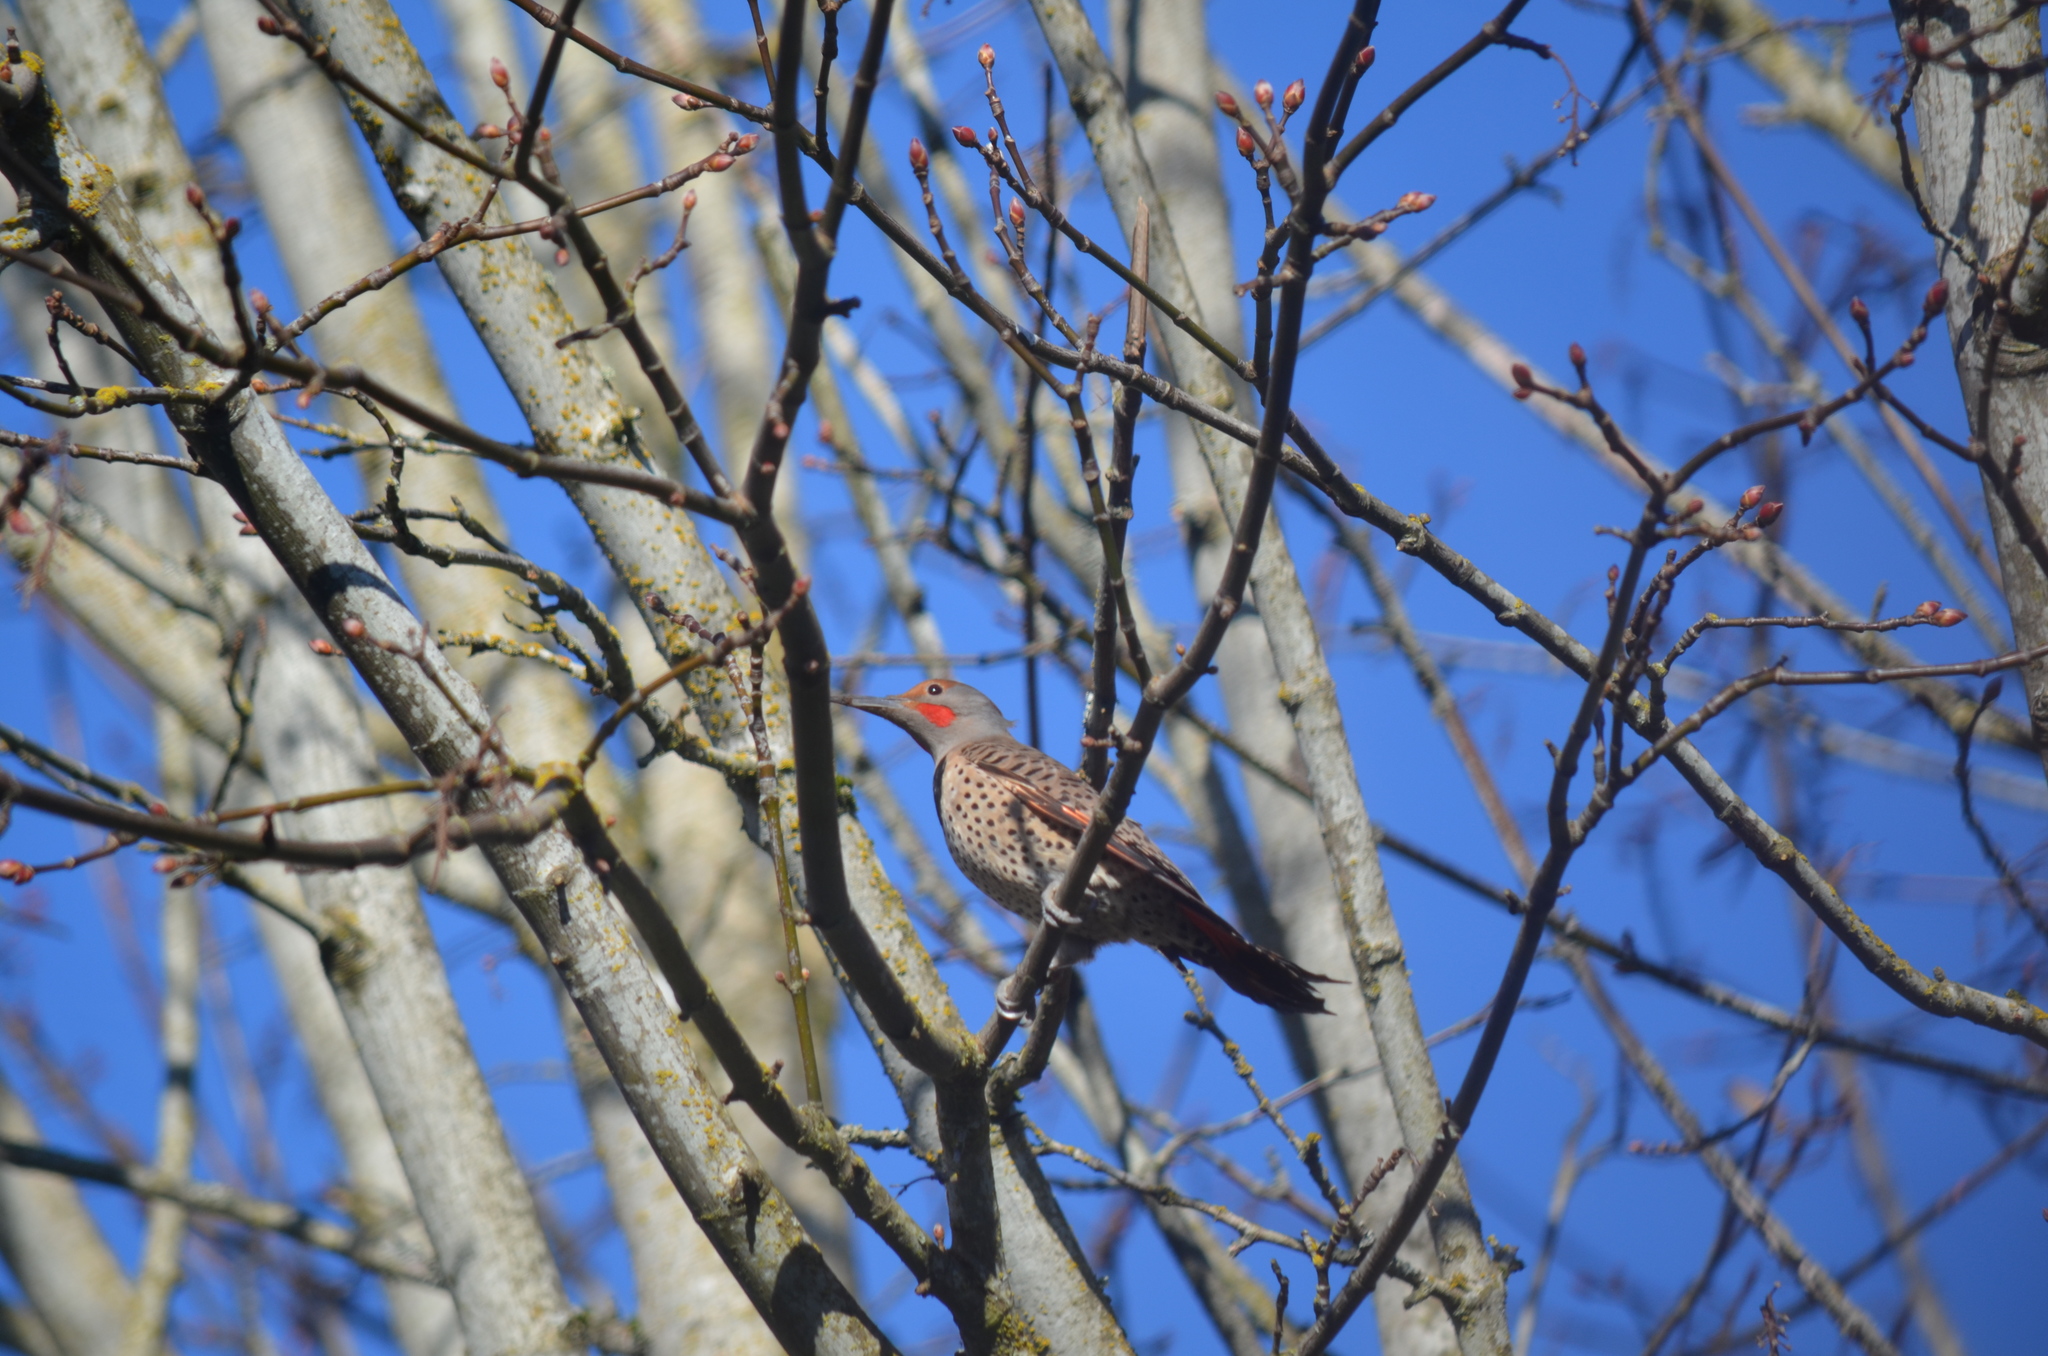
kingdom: Animalia
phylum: Chordata
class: Aves
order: Piciformes
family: Picidae
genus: Colaptes
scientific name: Colaptes auratus
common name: Northern flicker
